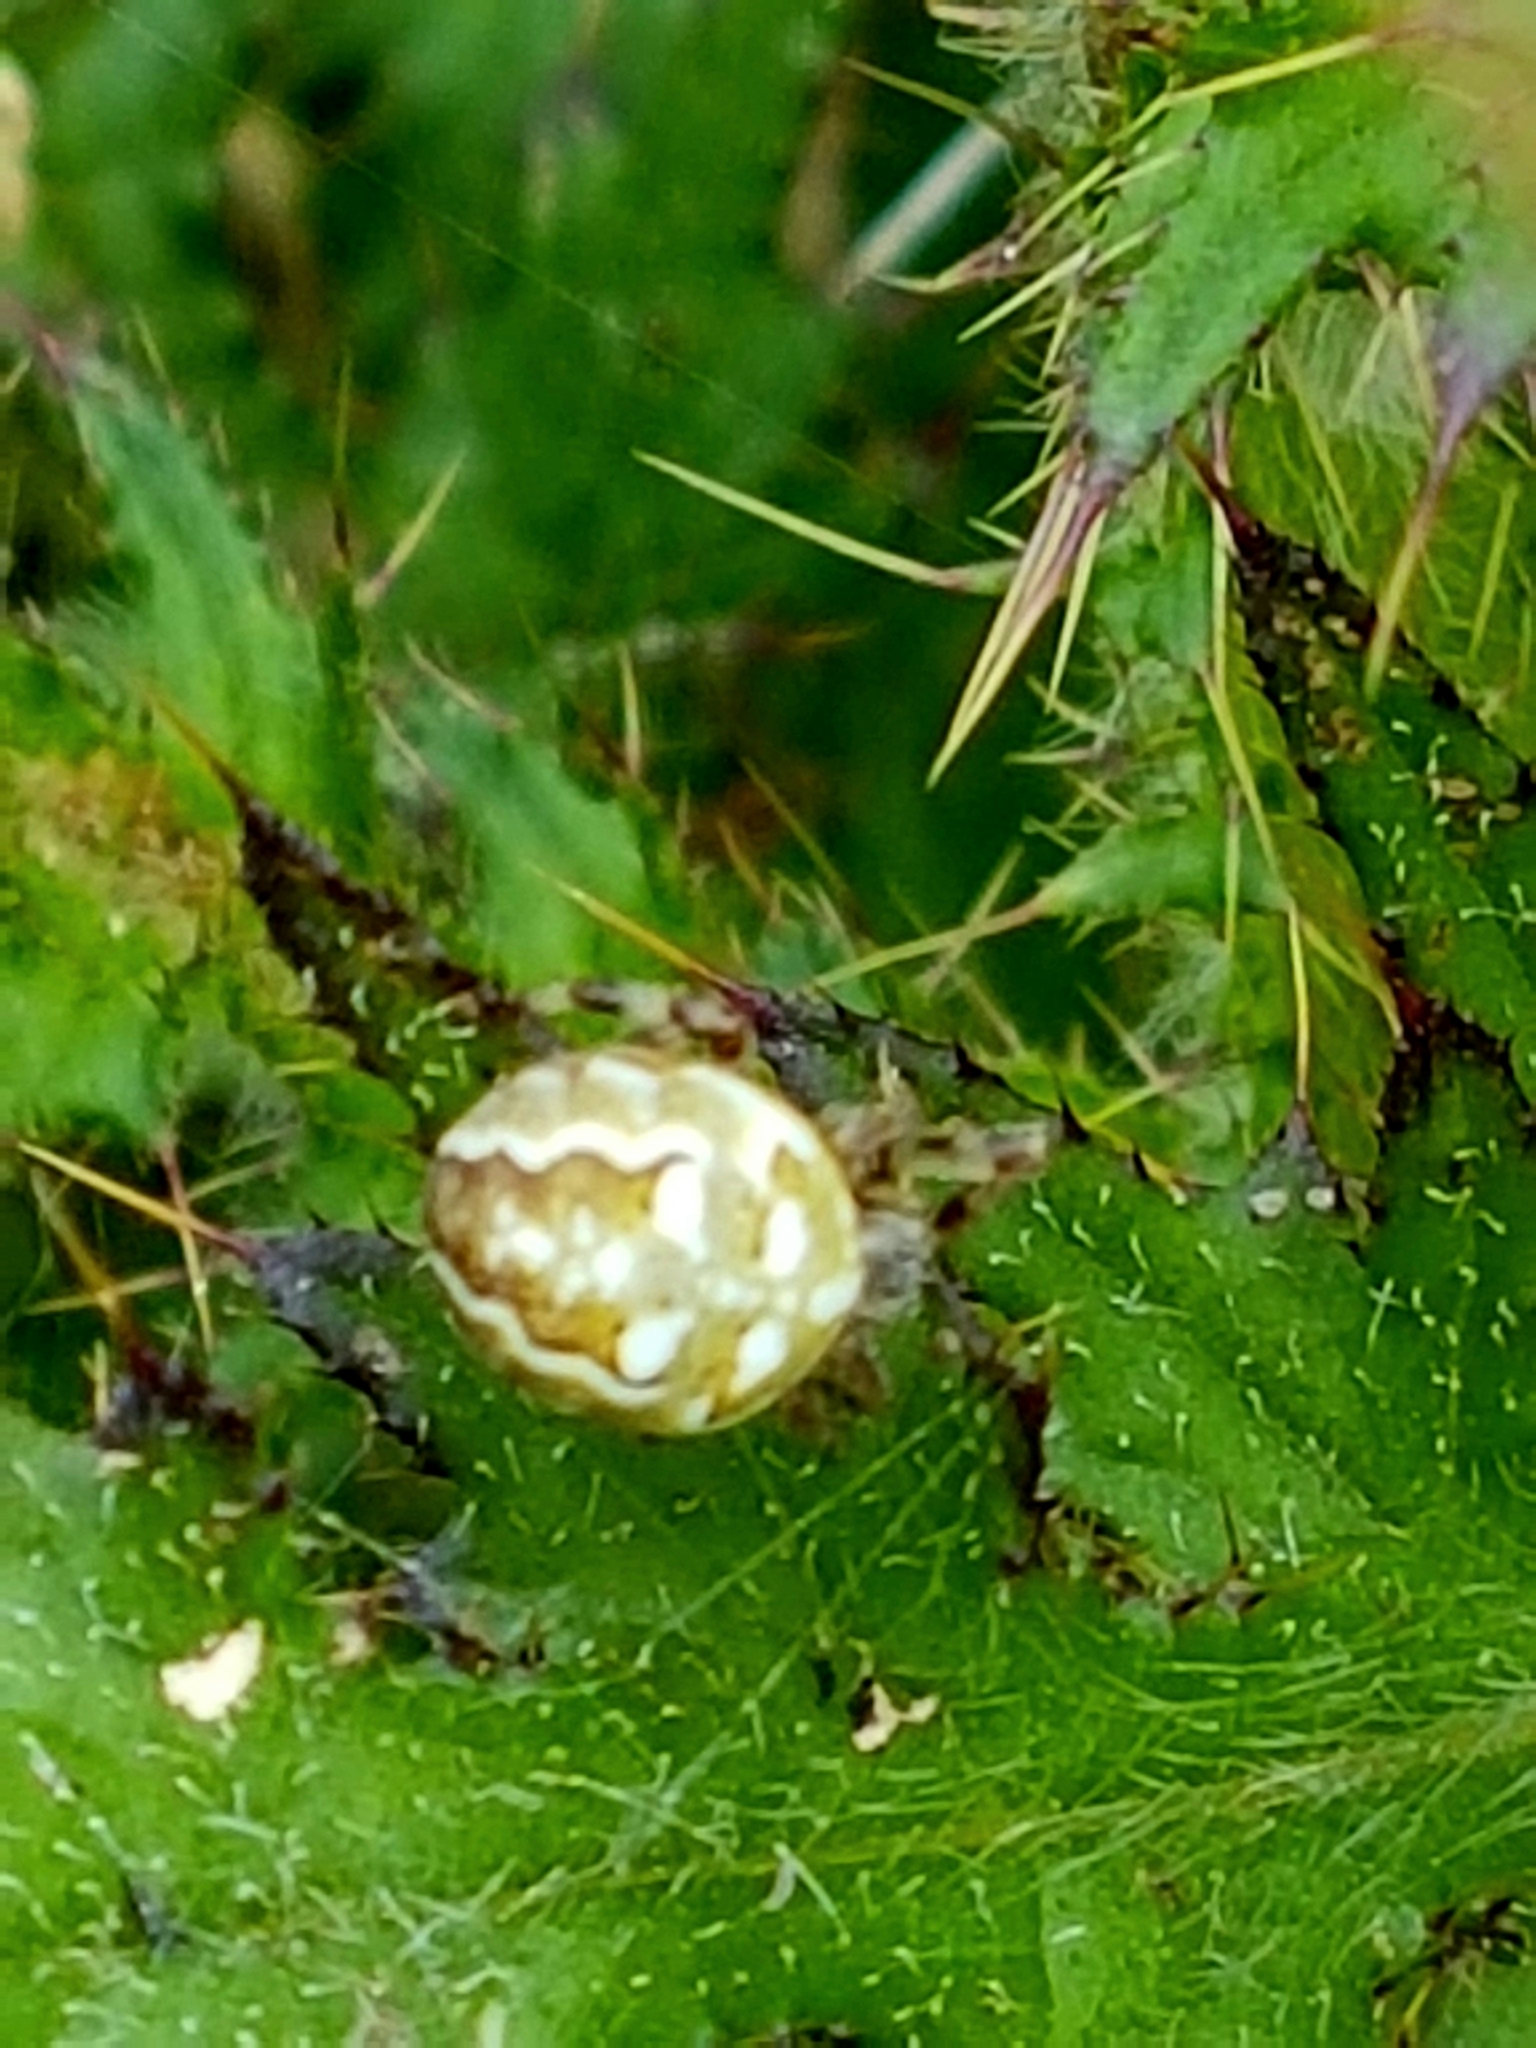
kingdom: Animalia
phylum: Arthropoda
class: Arachnida
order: Araneae
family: Araneidae
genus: Araneus
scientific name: Araneus quadratus
